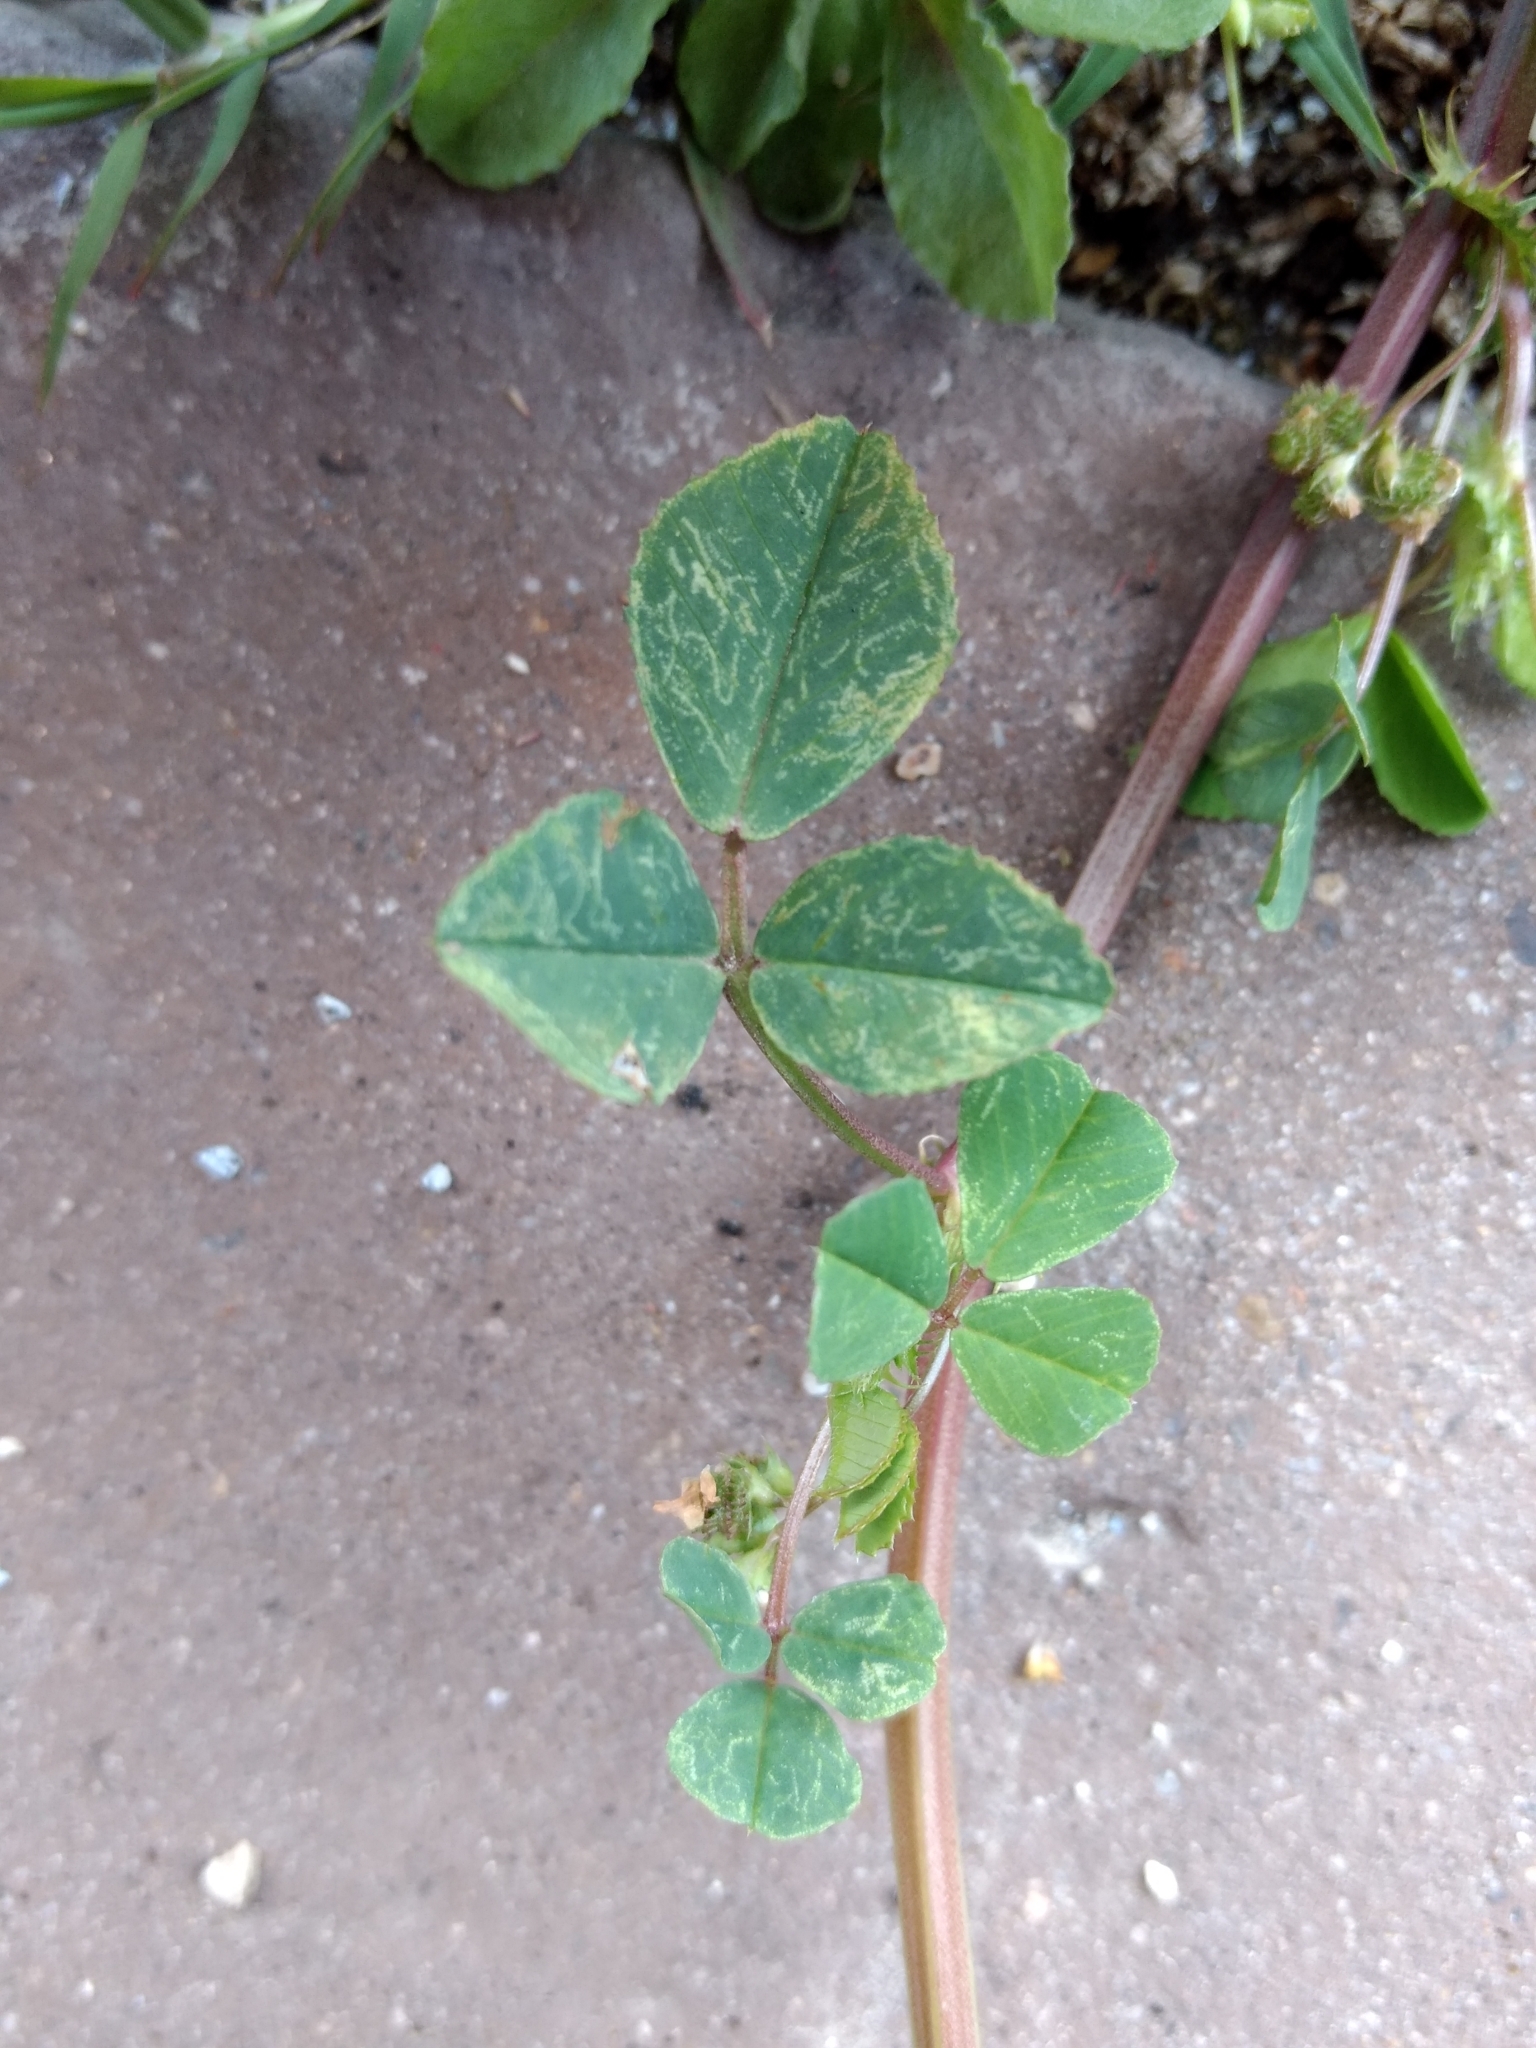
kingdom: Plantae
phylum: Tracheophyta
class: Magnoliopsida
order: Fabales
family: Fabaceae
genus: Medicago
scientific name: Medicago polymorpha
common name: Burclover
